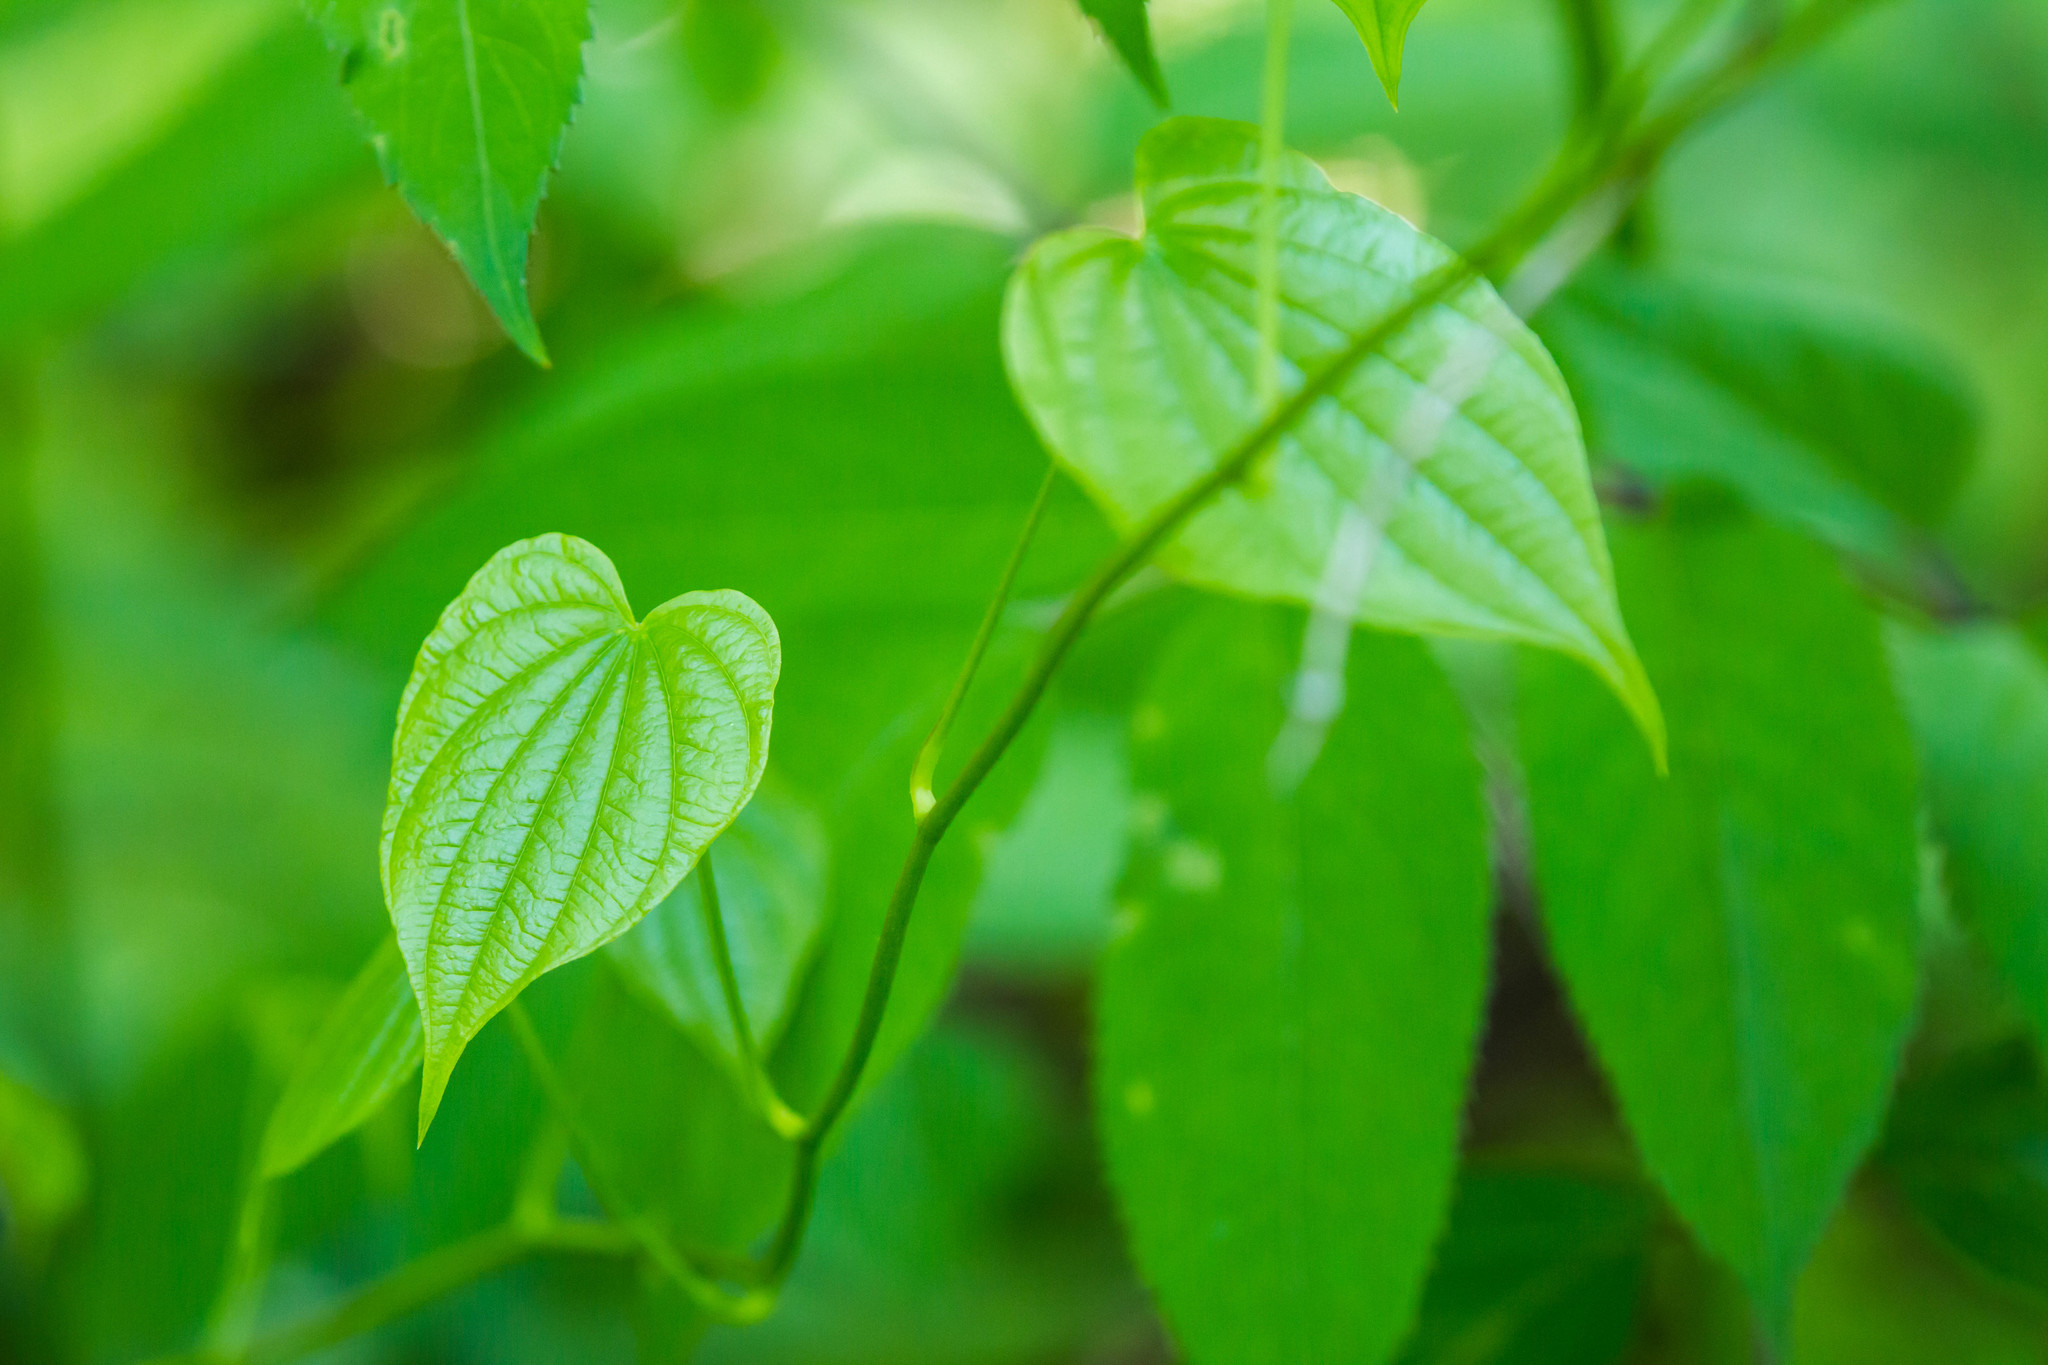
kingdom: Plantae
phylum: Tracheophyta
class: Liliopsida
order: Dioscoreales
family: Dioscoreaceae
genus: Dioscorea
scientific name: Dioscorea villosa
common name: Wild yam
